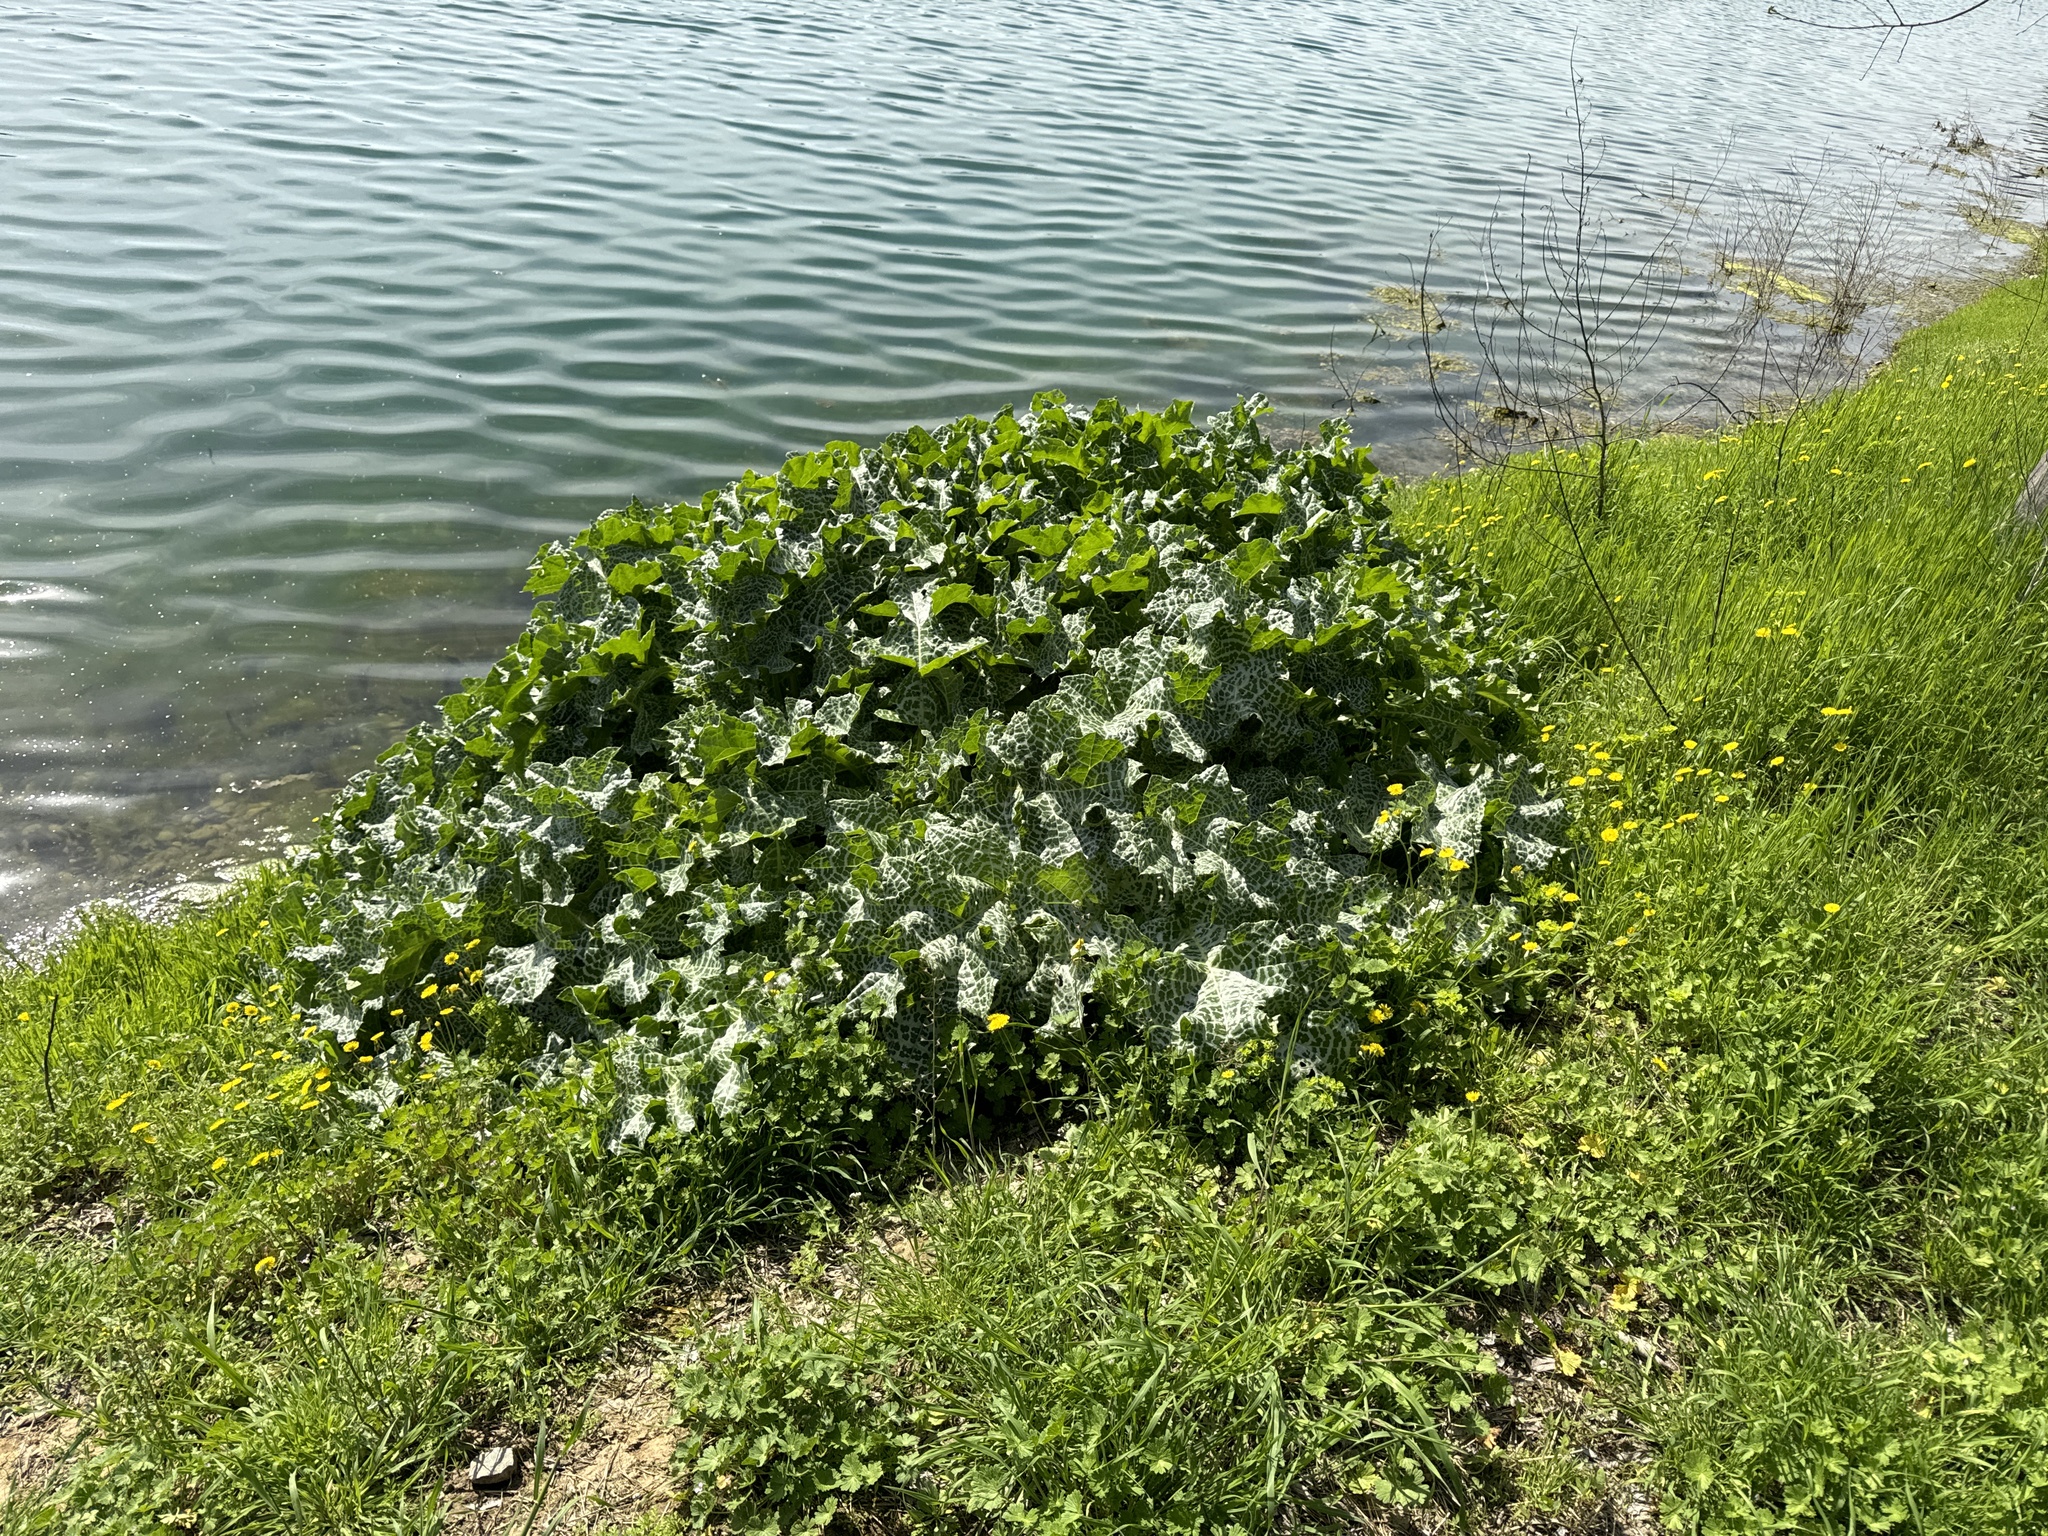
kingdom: Plantae
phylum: Tracheophyta
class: Magnoliopsida
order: Asterales
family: Asteraceae
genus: Silybum
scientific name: Silybum marianum
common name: Milk thistle
